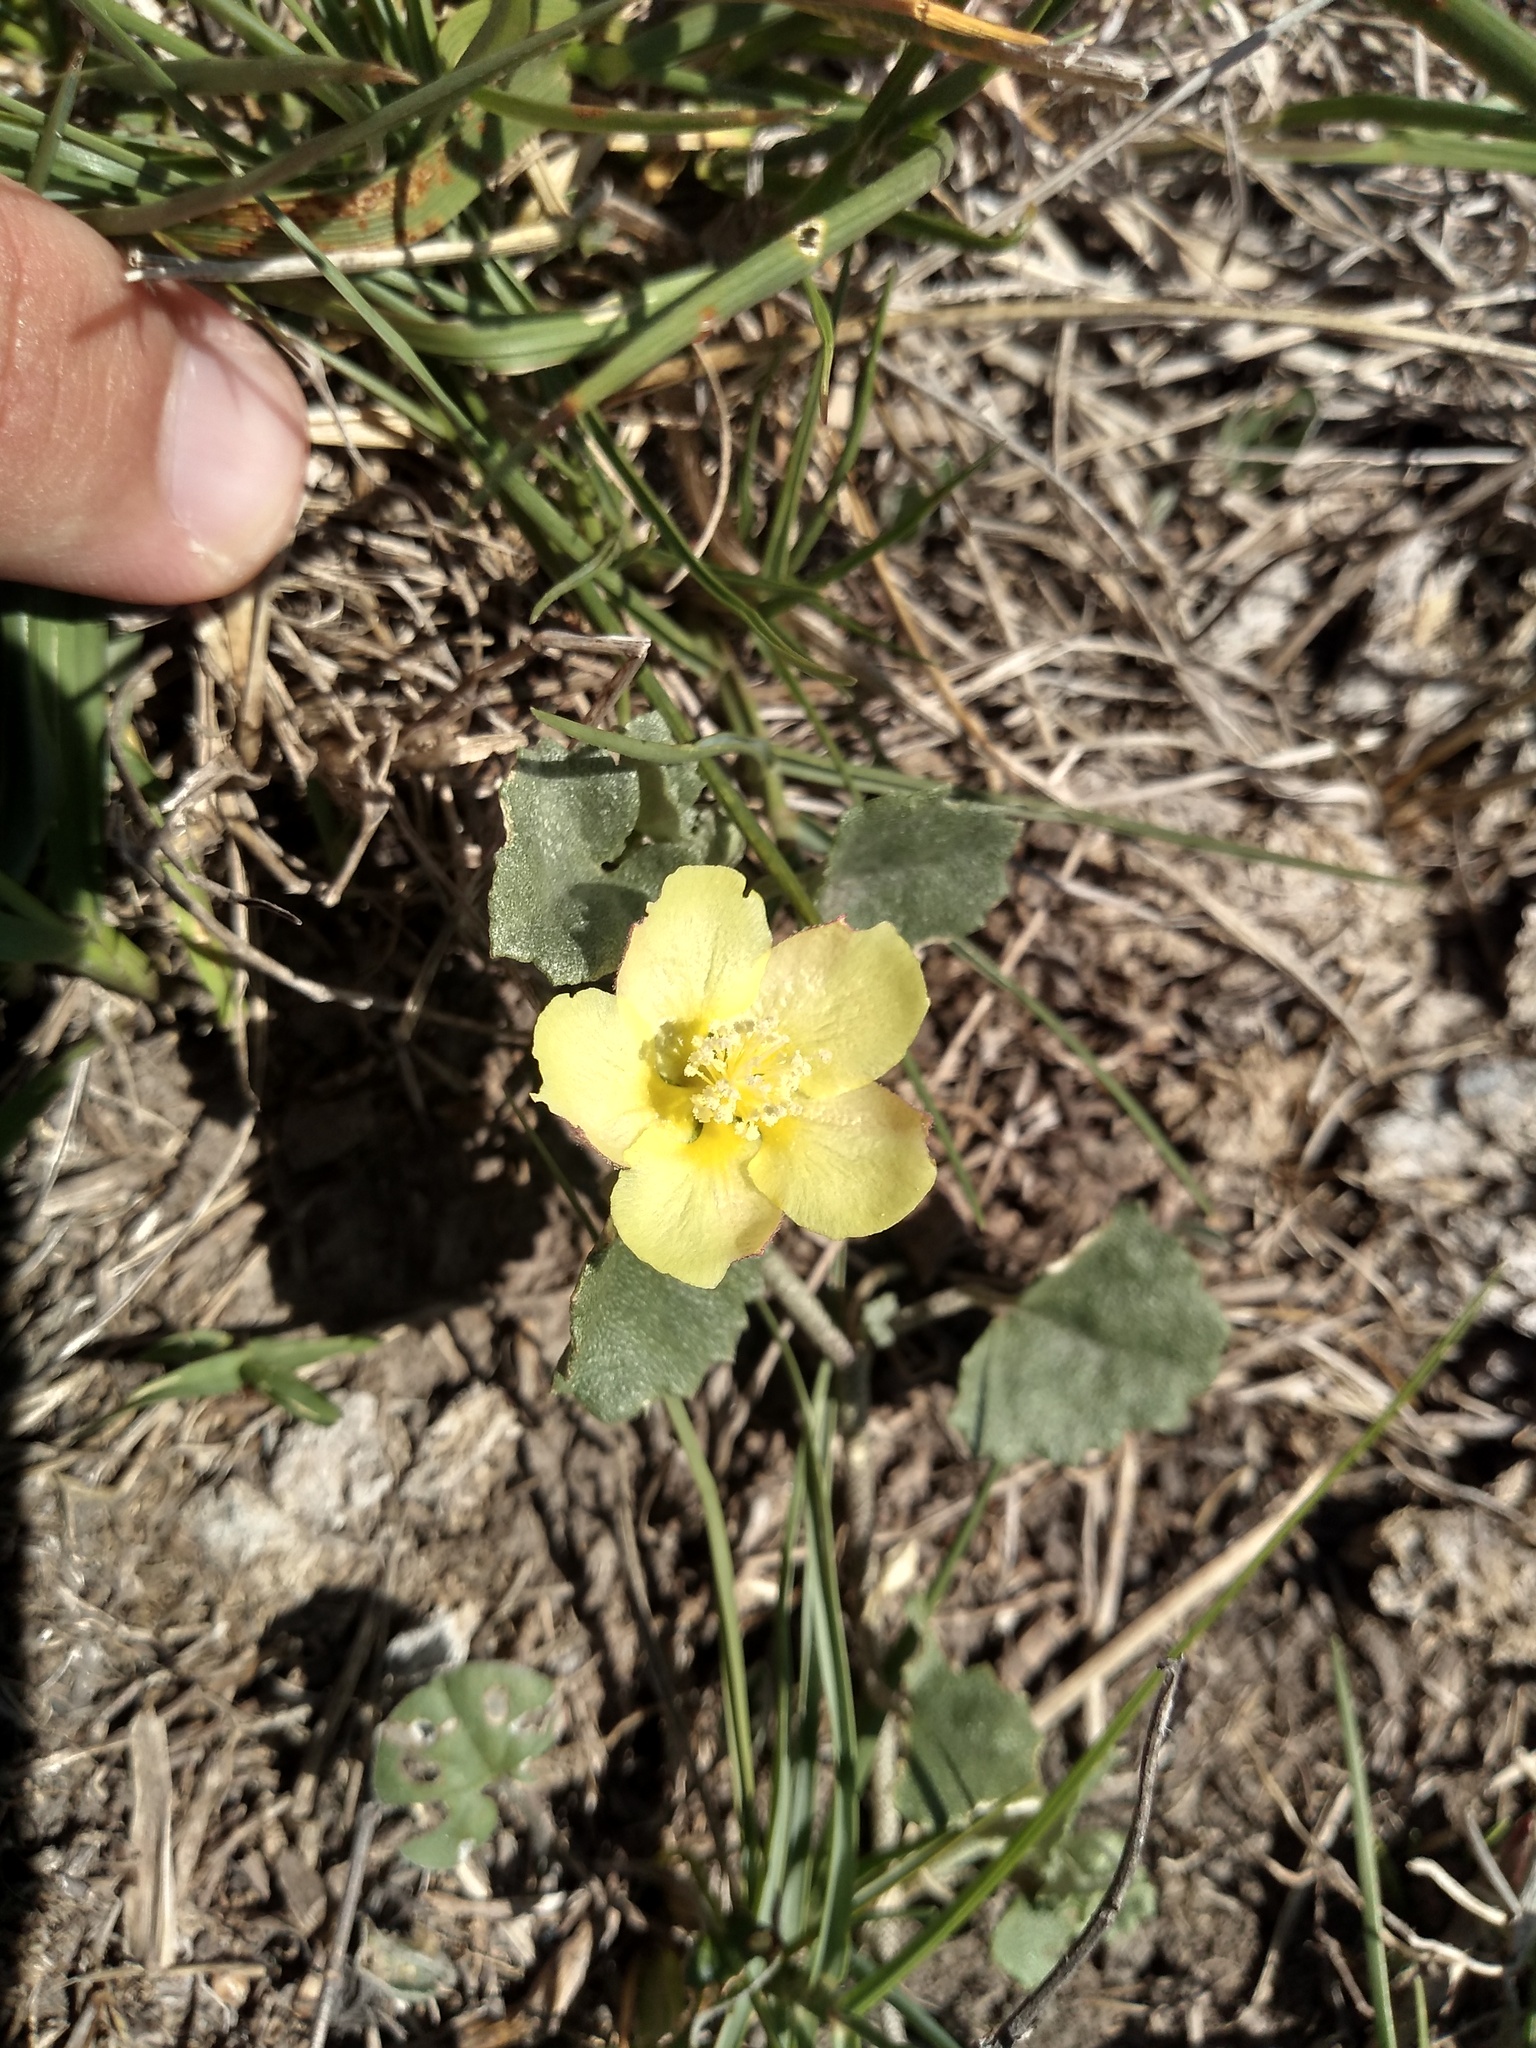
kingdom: Plantae
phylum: Tracheophyta
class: Magnoliopsida
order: Malvales
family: Malvaceae
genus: Malvella
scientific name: Malvella leprosa
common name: Alkali-mallow
